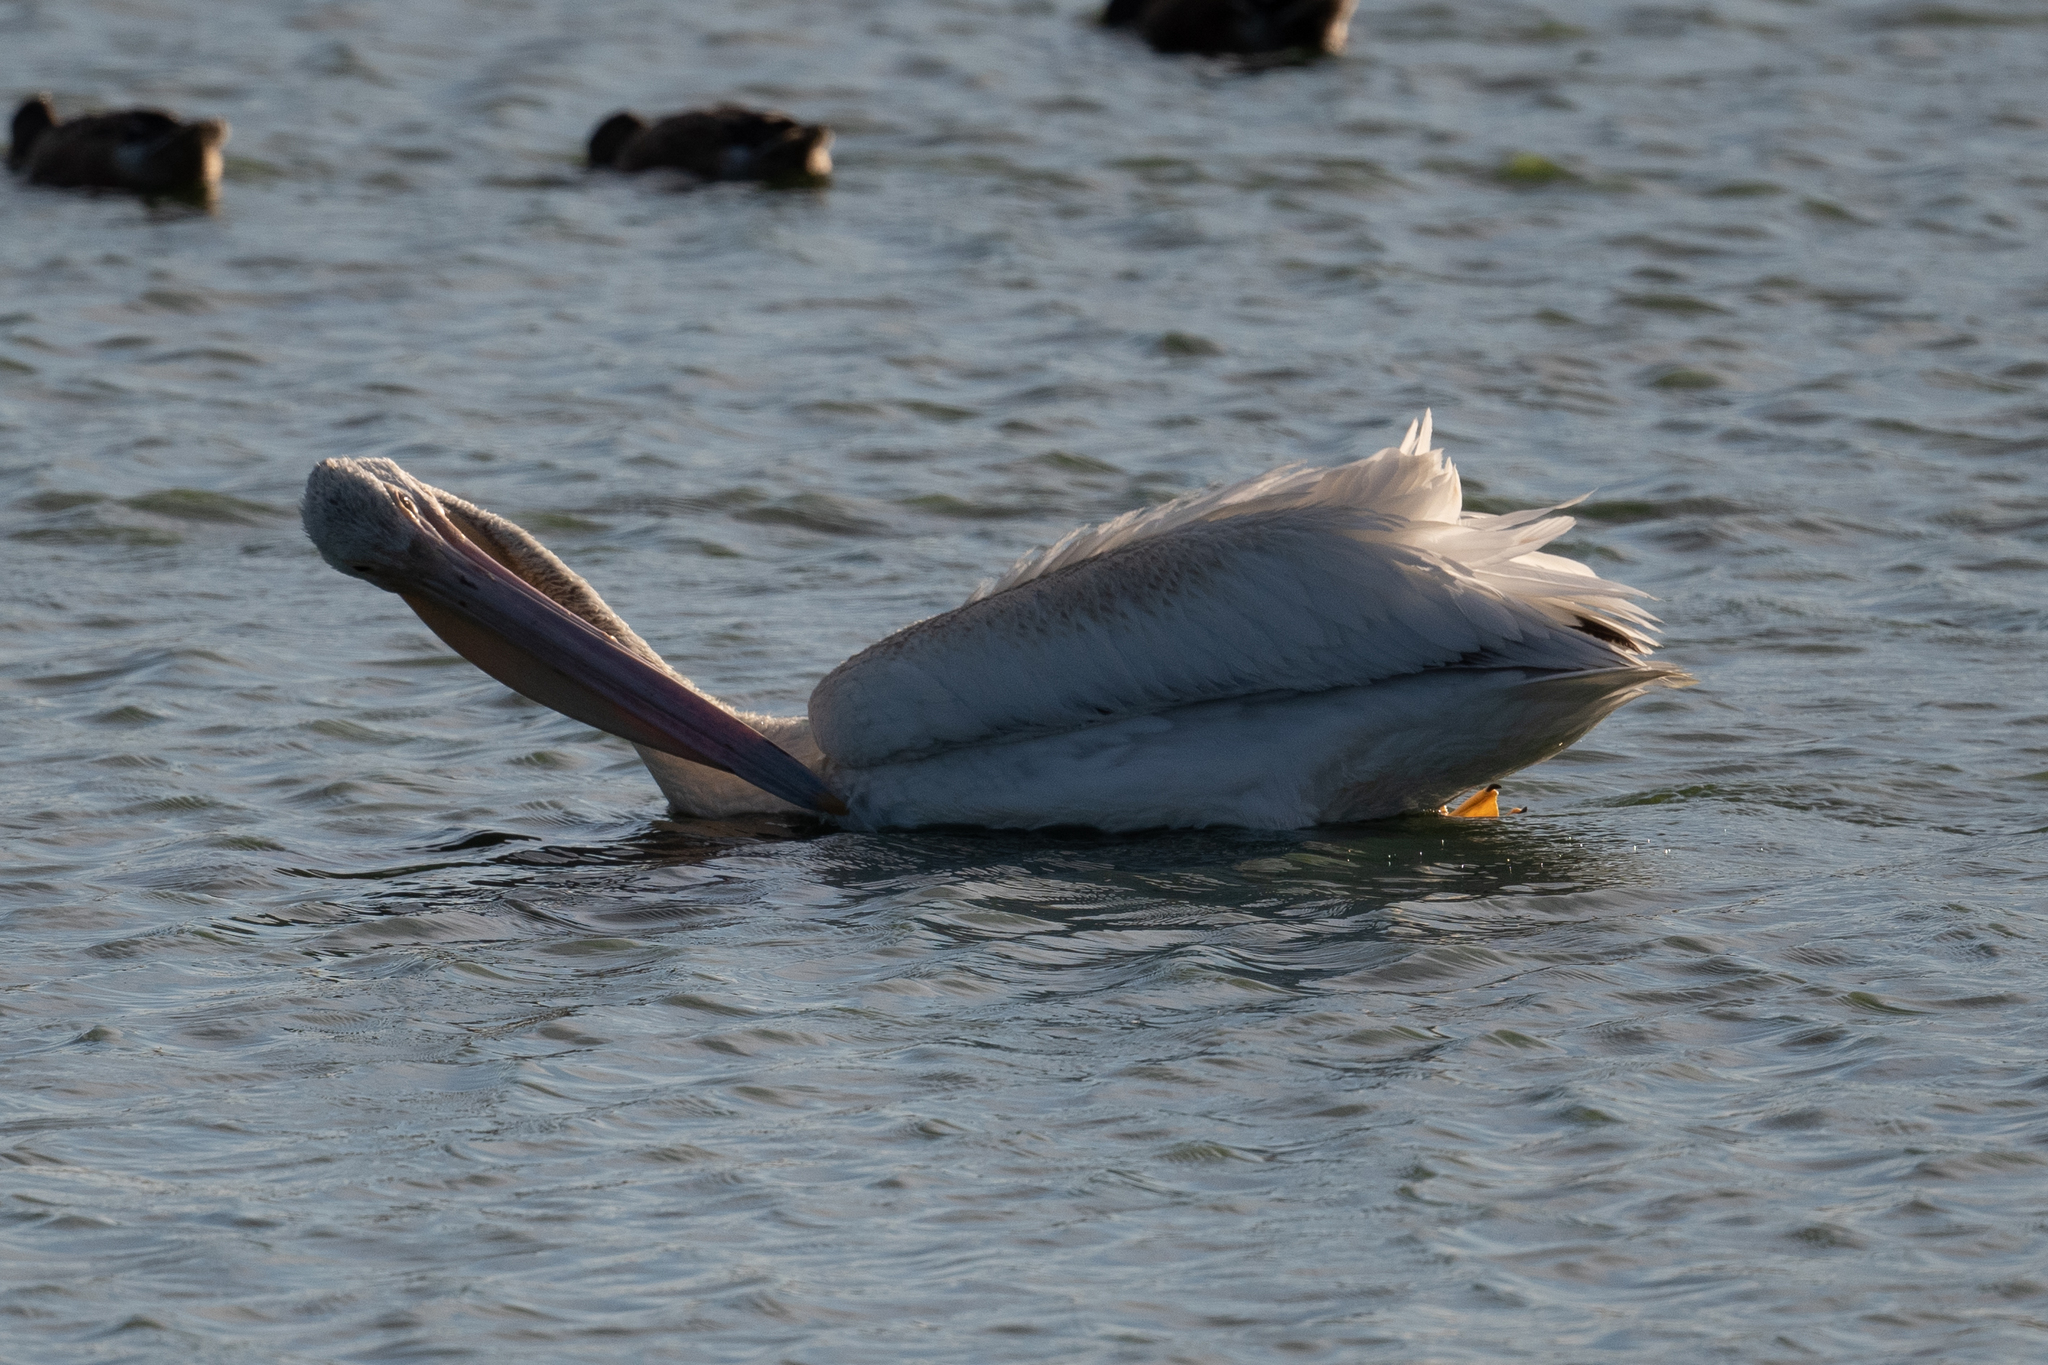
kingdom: Animalia
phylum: Chordata
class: Aves
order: Pelecaniformes
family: Pelecanidae
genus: Pelecanus
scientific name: Pelecanus erythrorhynchos
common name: American white pelican
